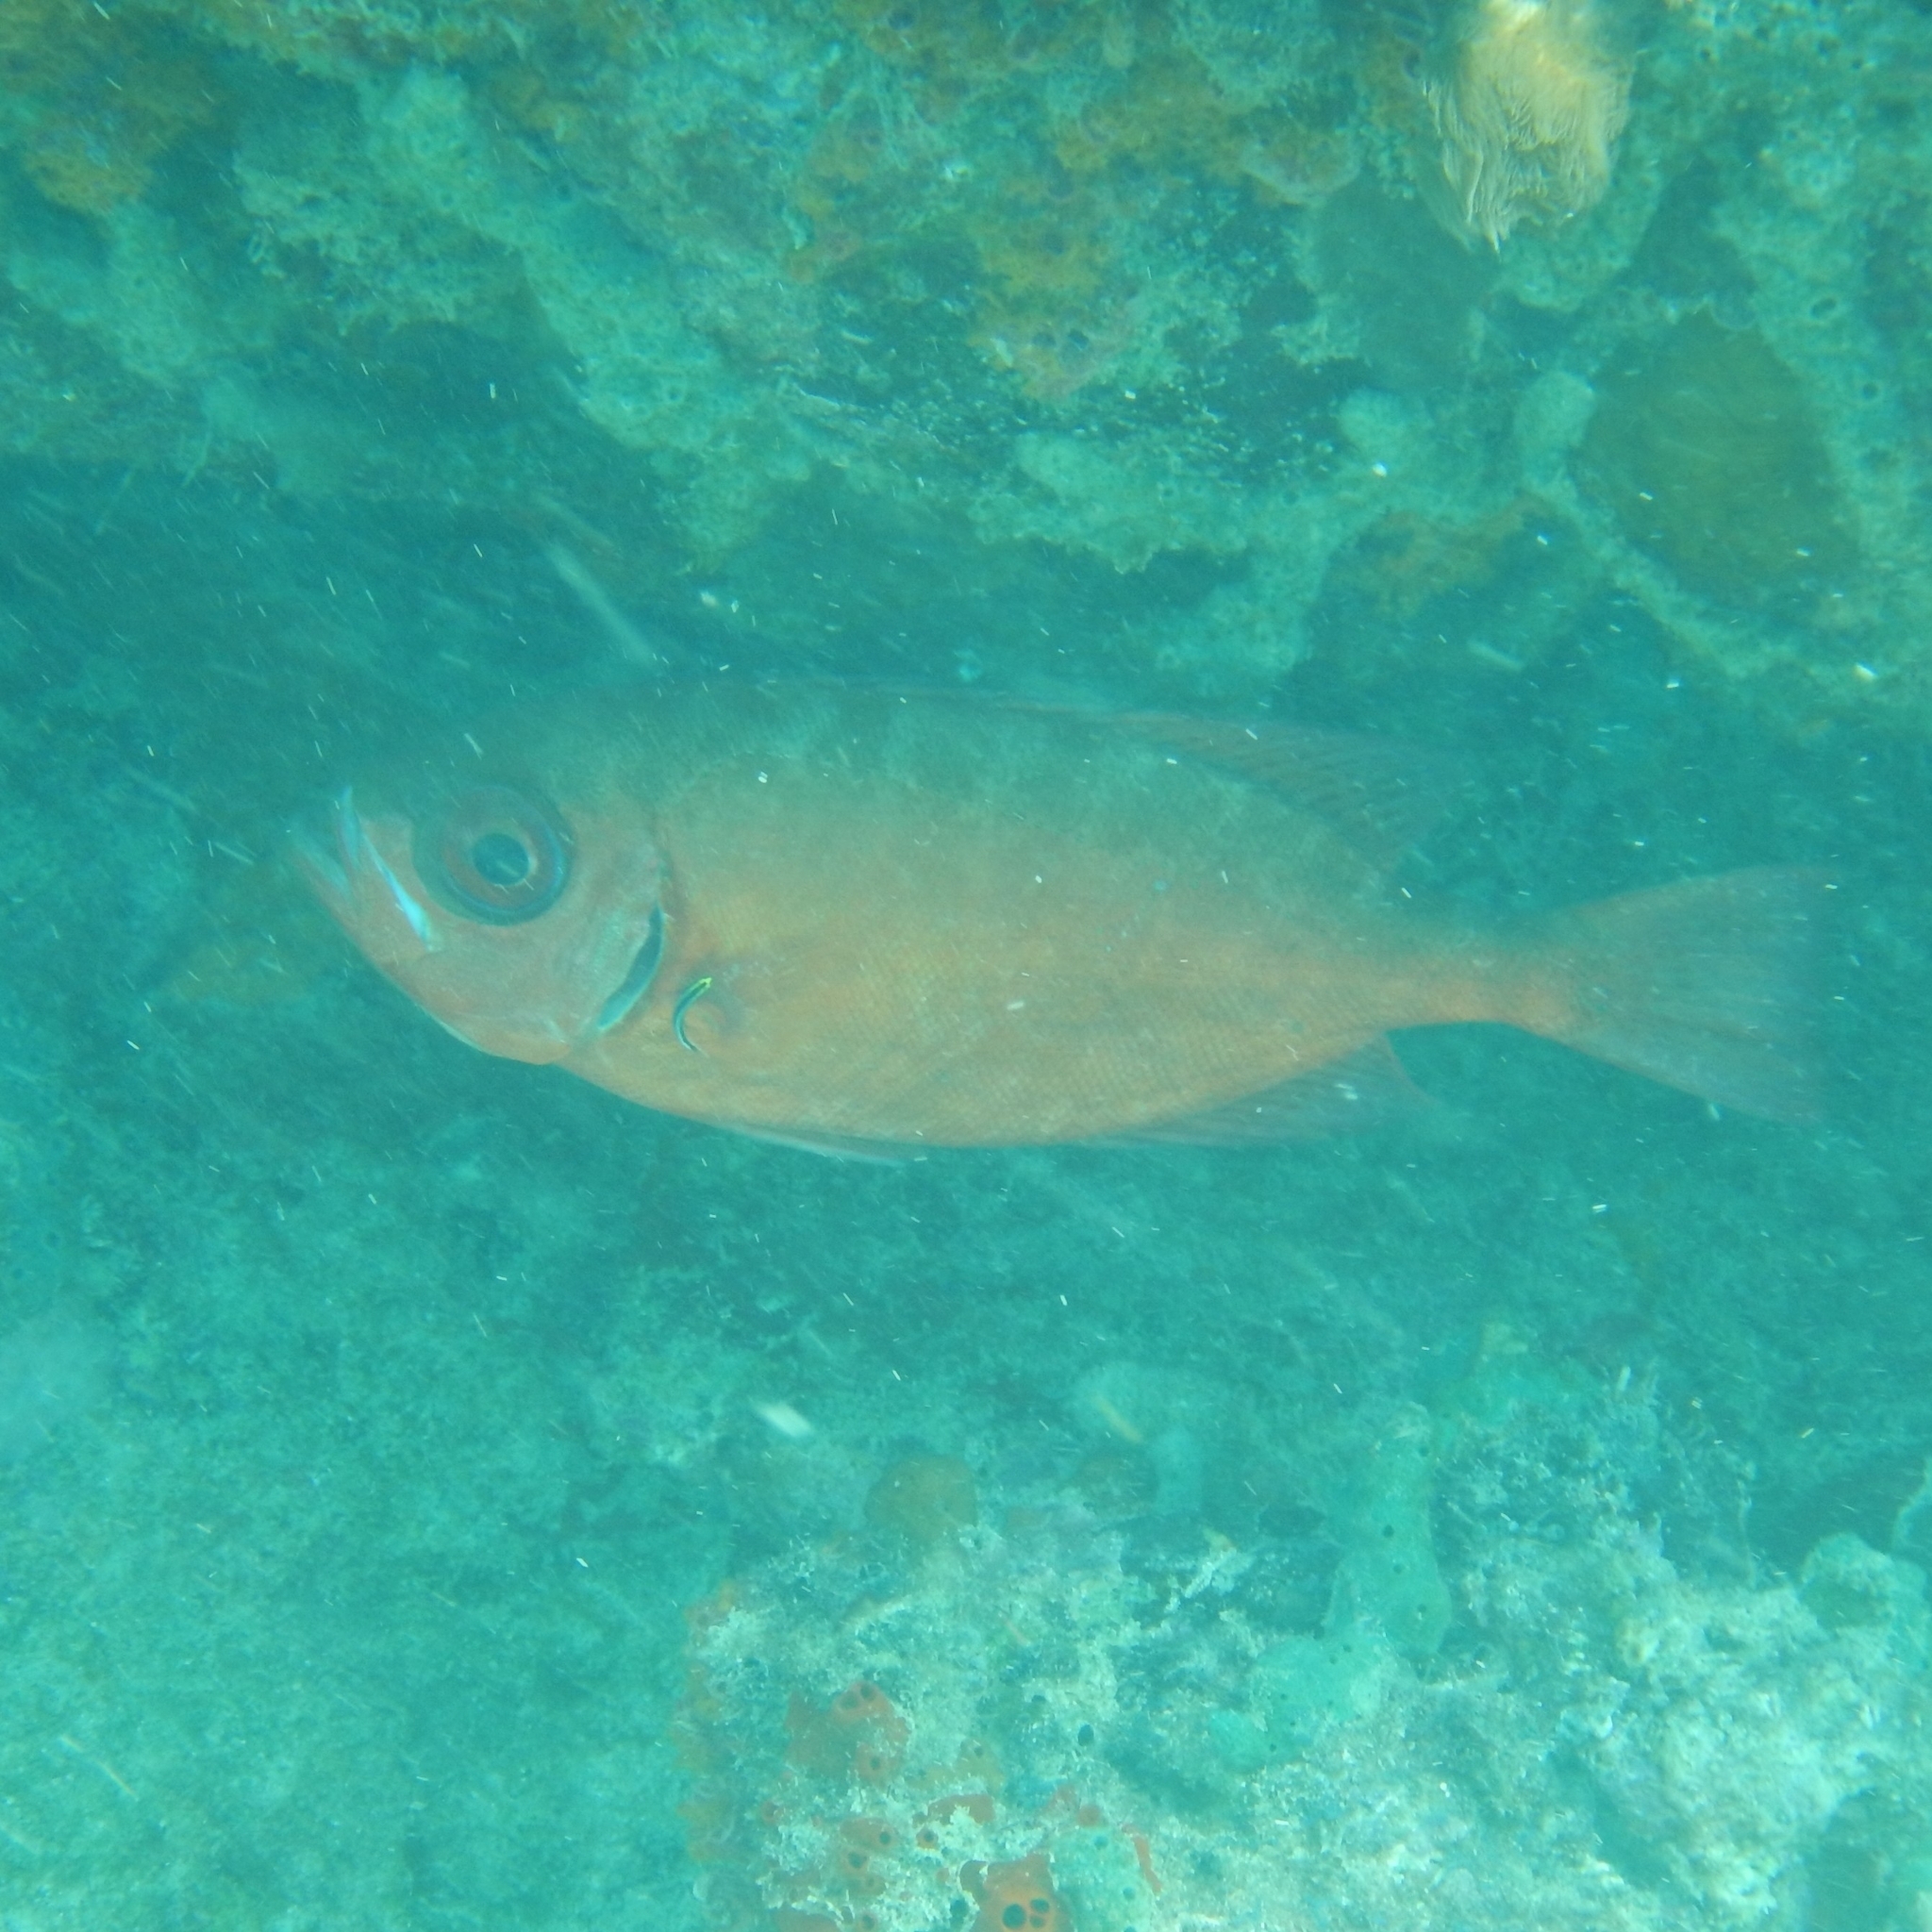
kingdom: Animalia
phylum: Chordata
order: Perciformes
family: Priacanthidae
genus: Heteropriacanthus
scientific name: Heteropriacanthus cruentatus
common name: Glasseye
